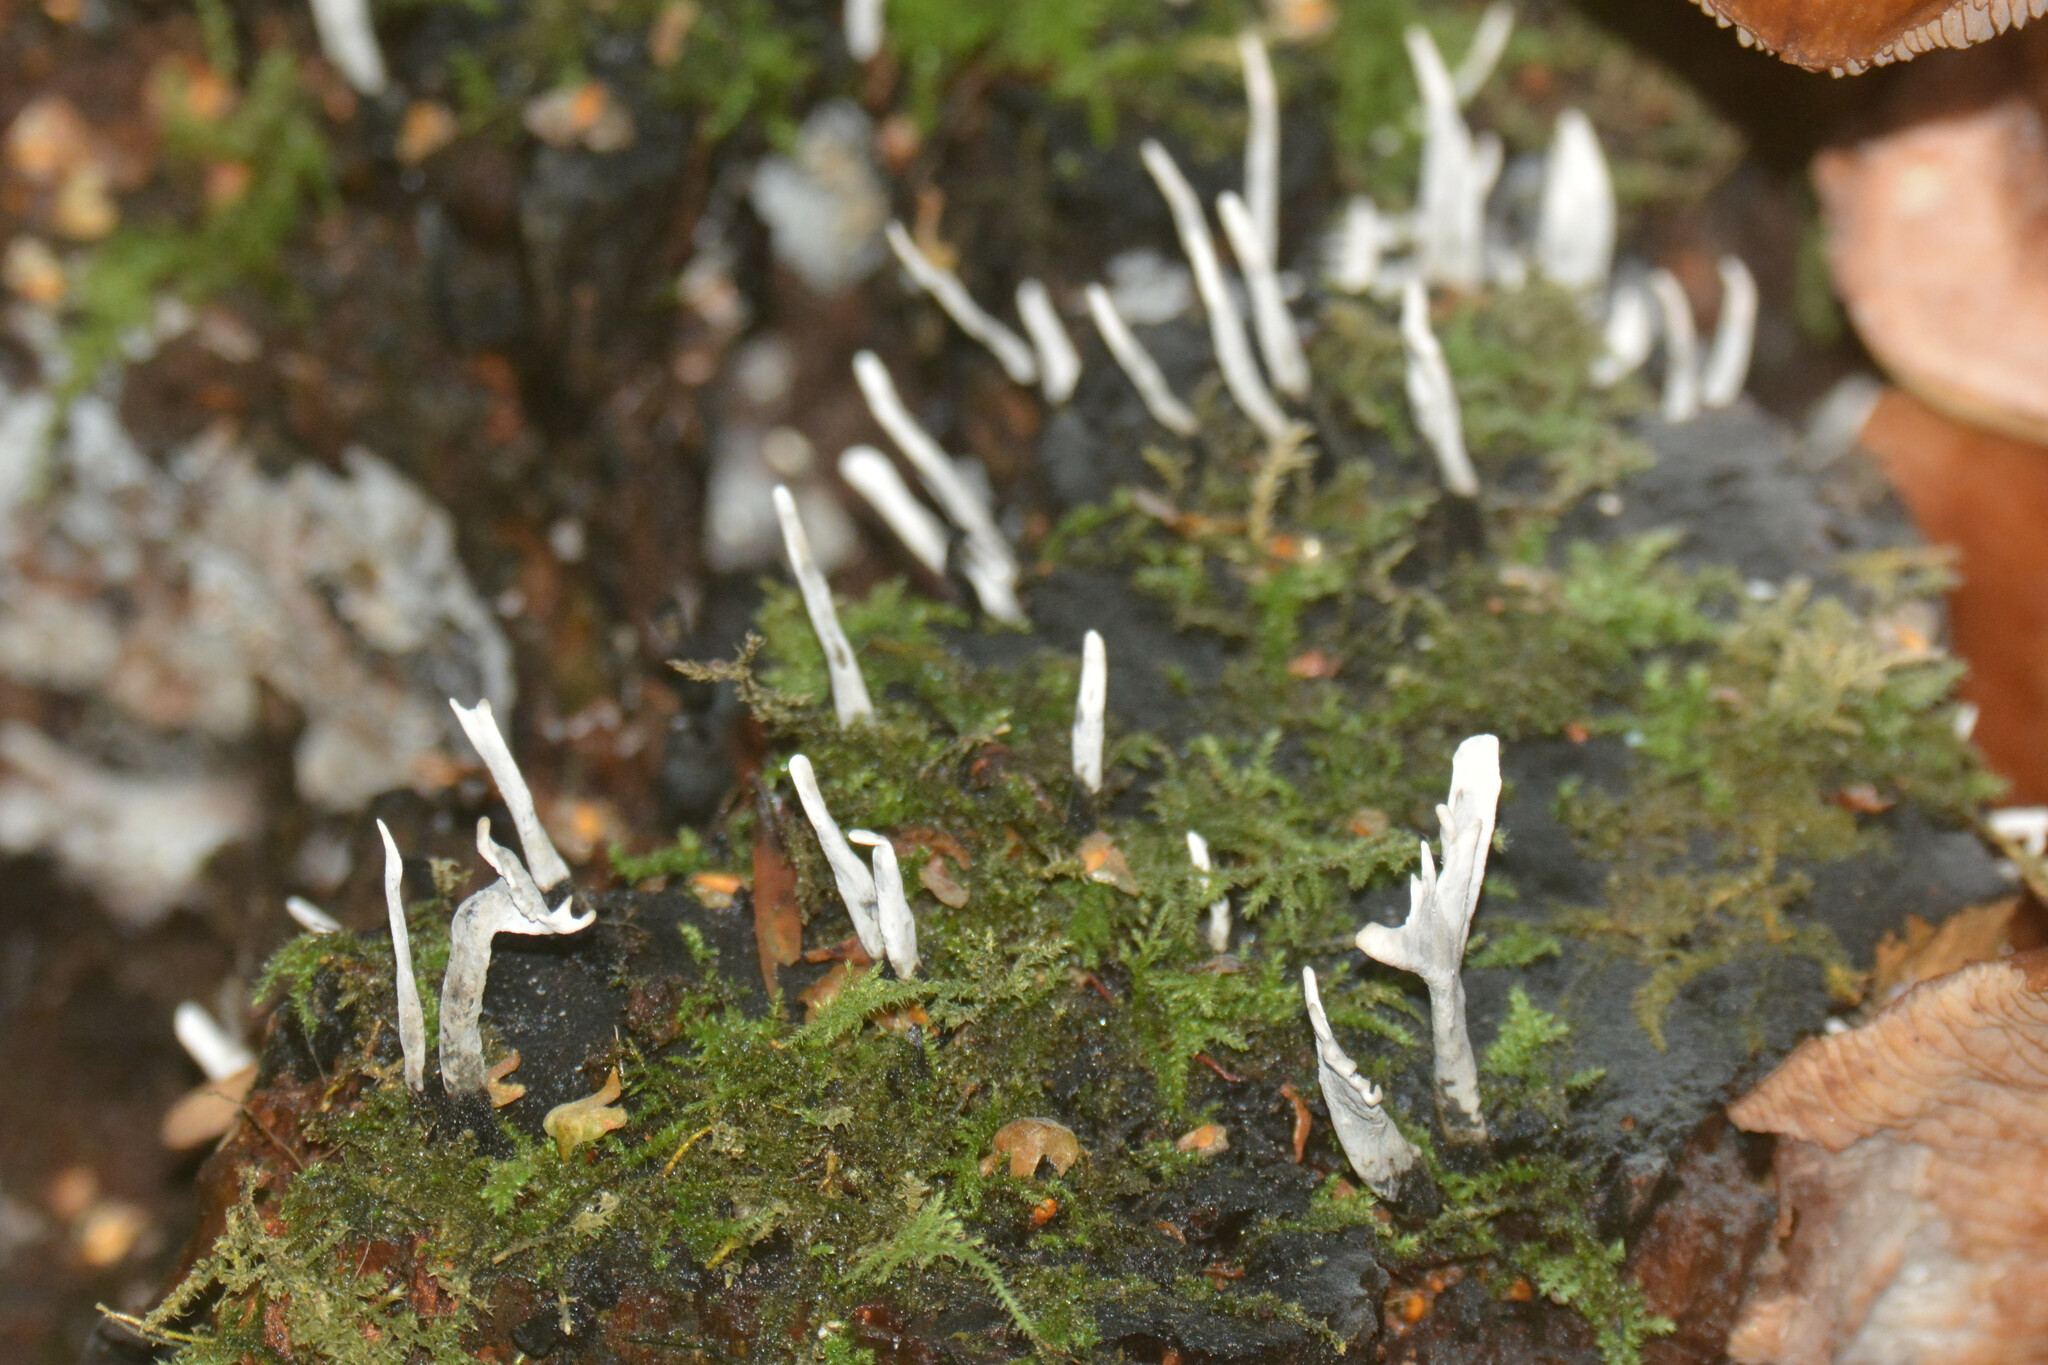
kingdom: Fungi
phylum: Ascomycota
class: Sordariomycetes
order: Xylariales
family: Xylariaceae
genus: Xylaria
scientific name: Xylaria hypoxylon
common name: Candle-snuff fungus
